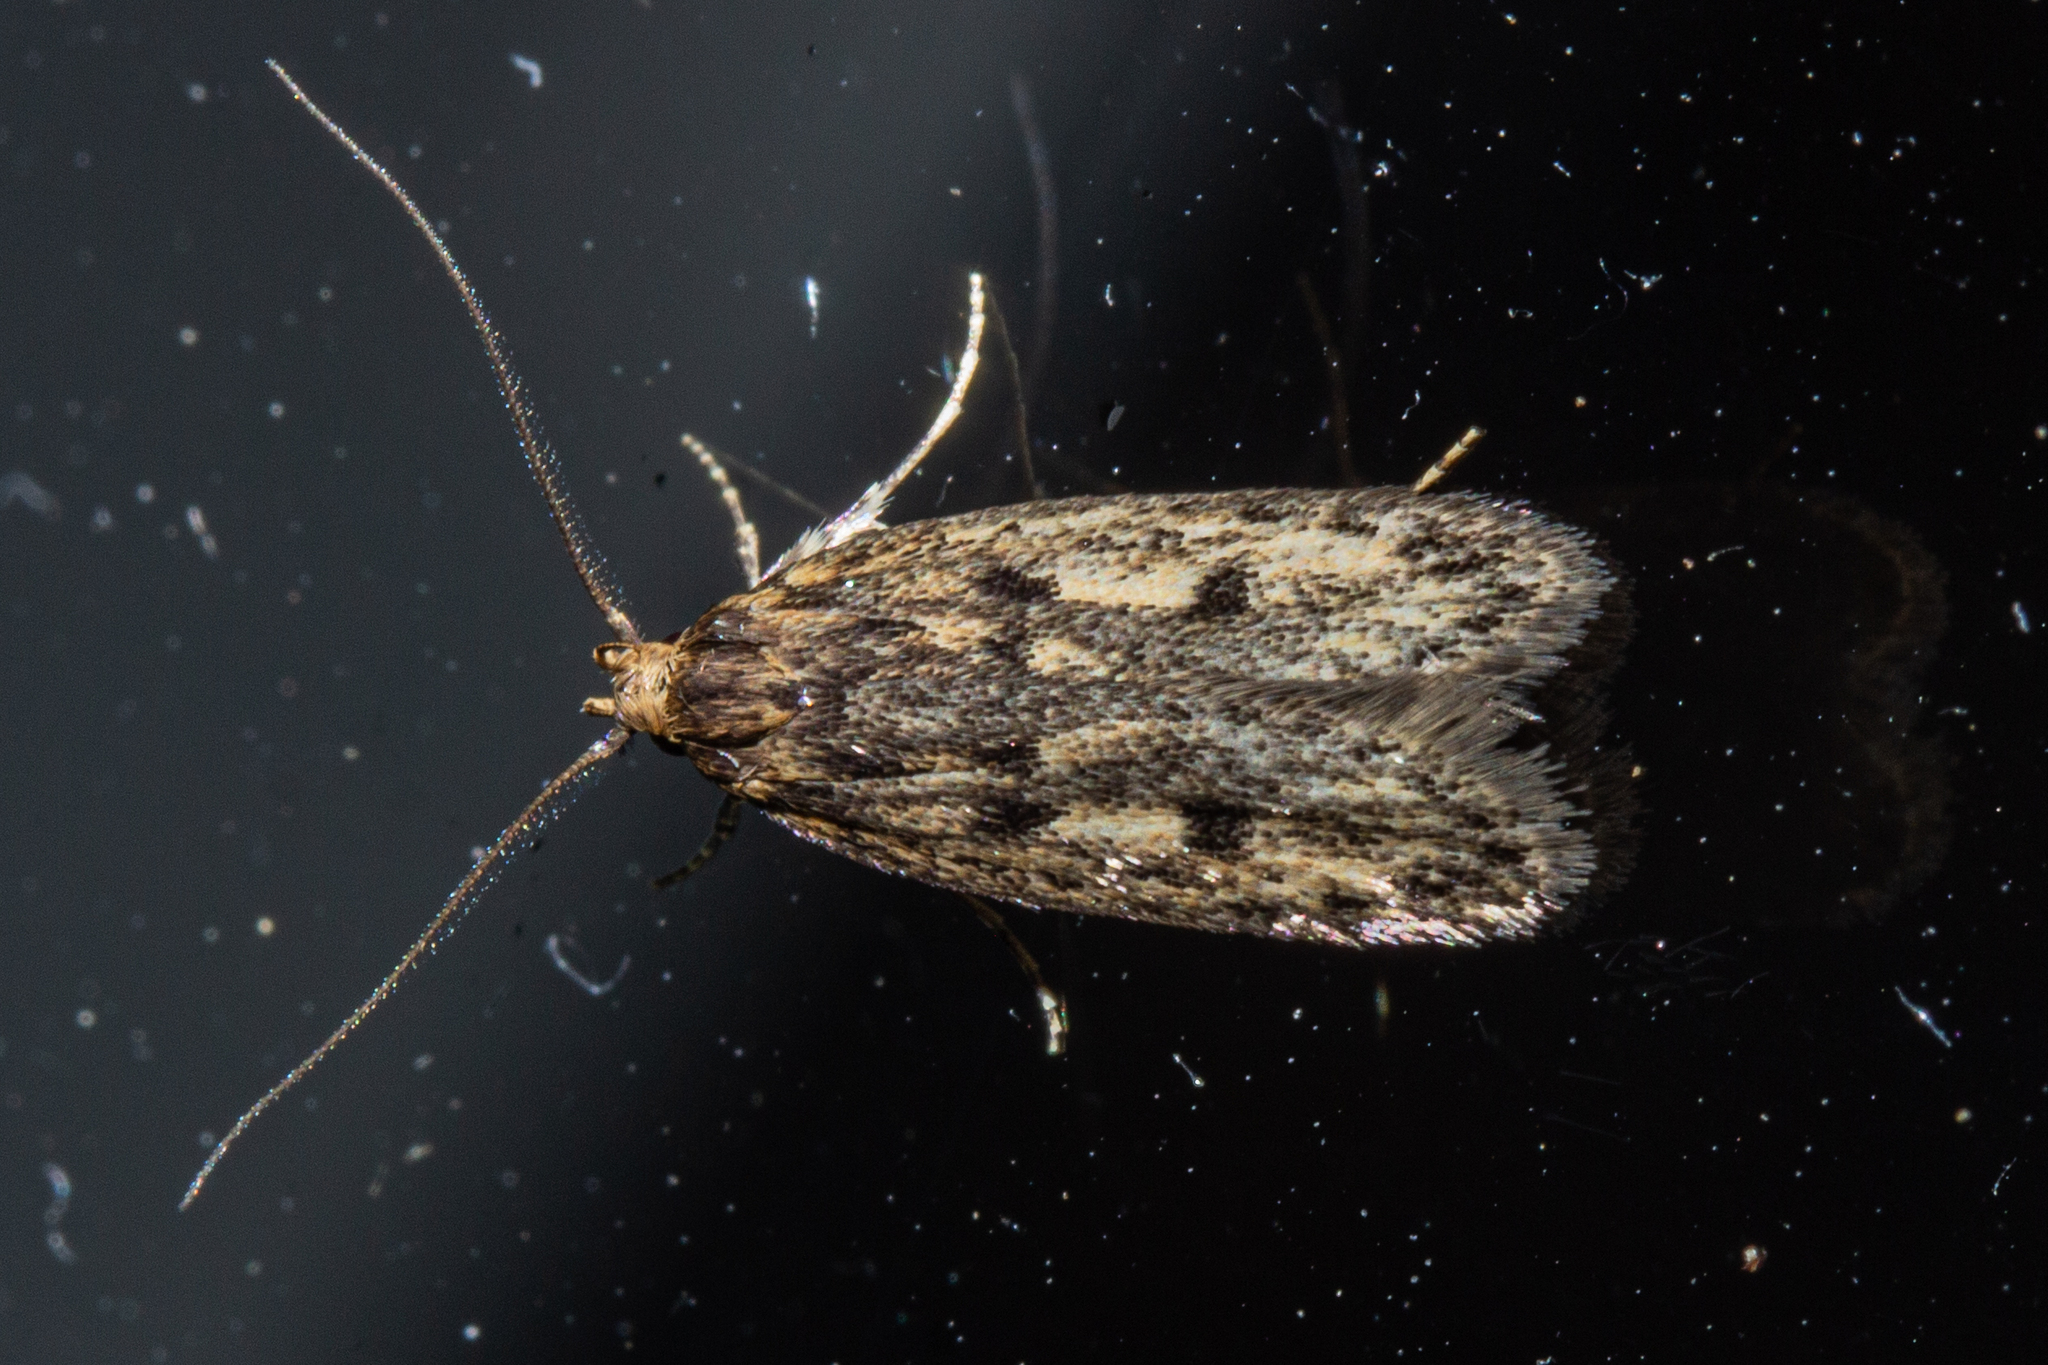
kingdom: Animalia
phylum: Arthropoda
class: Insecta
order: Lepidoptera
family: Oecophoridae
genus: Hofmannophila
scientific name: Hofmannophila pseudospretella
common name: Brown house moth
